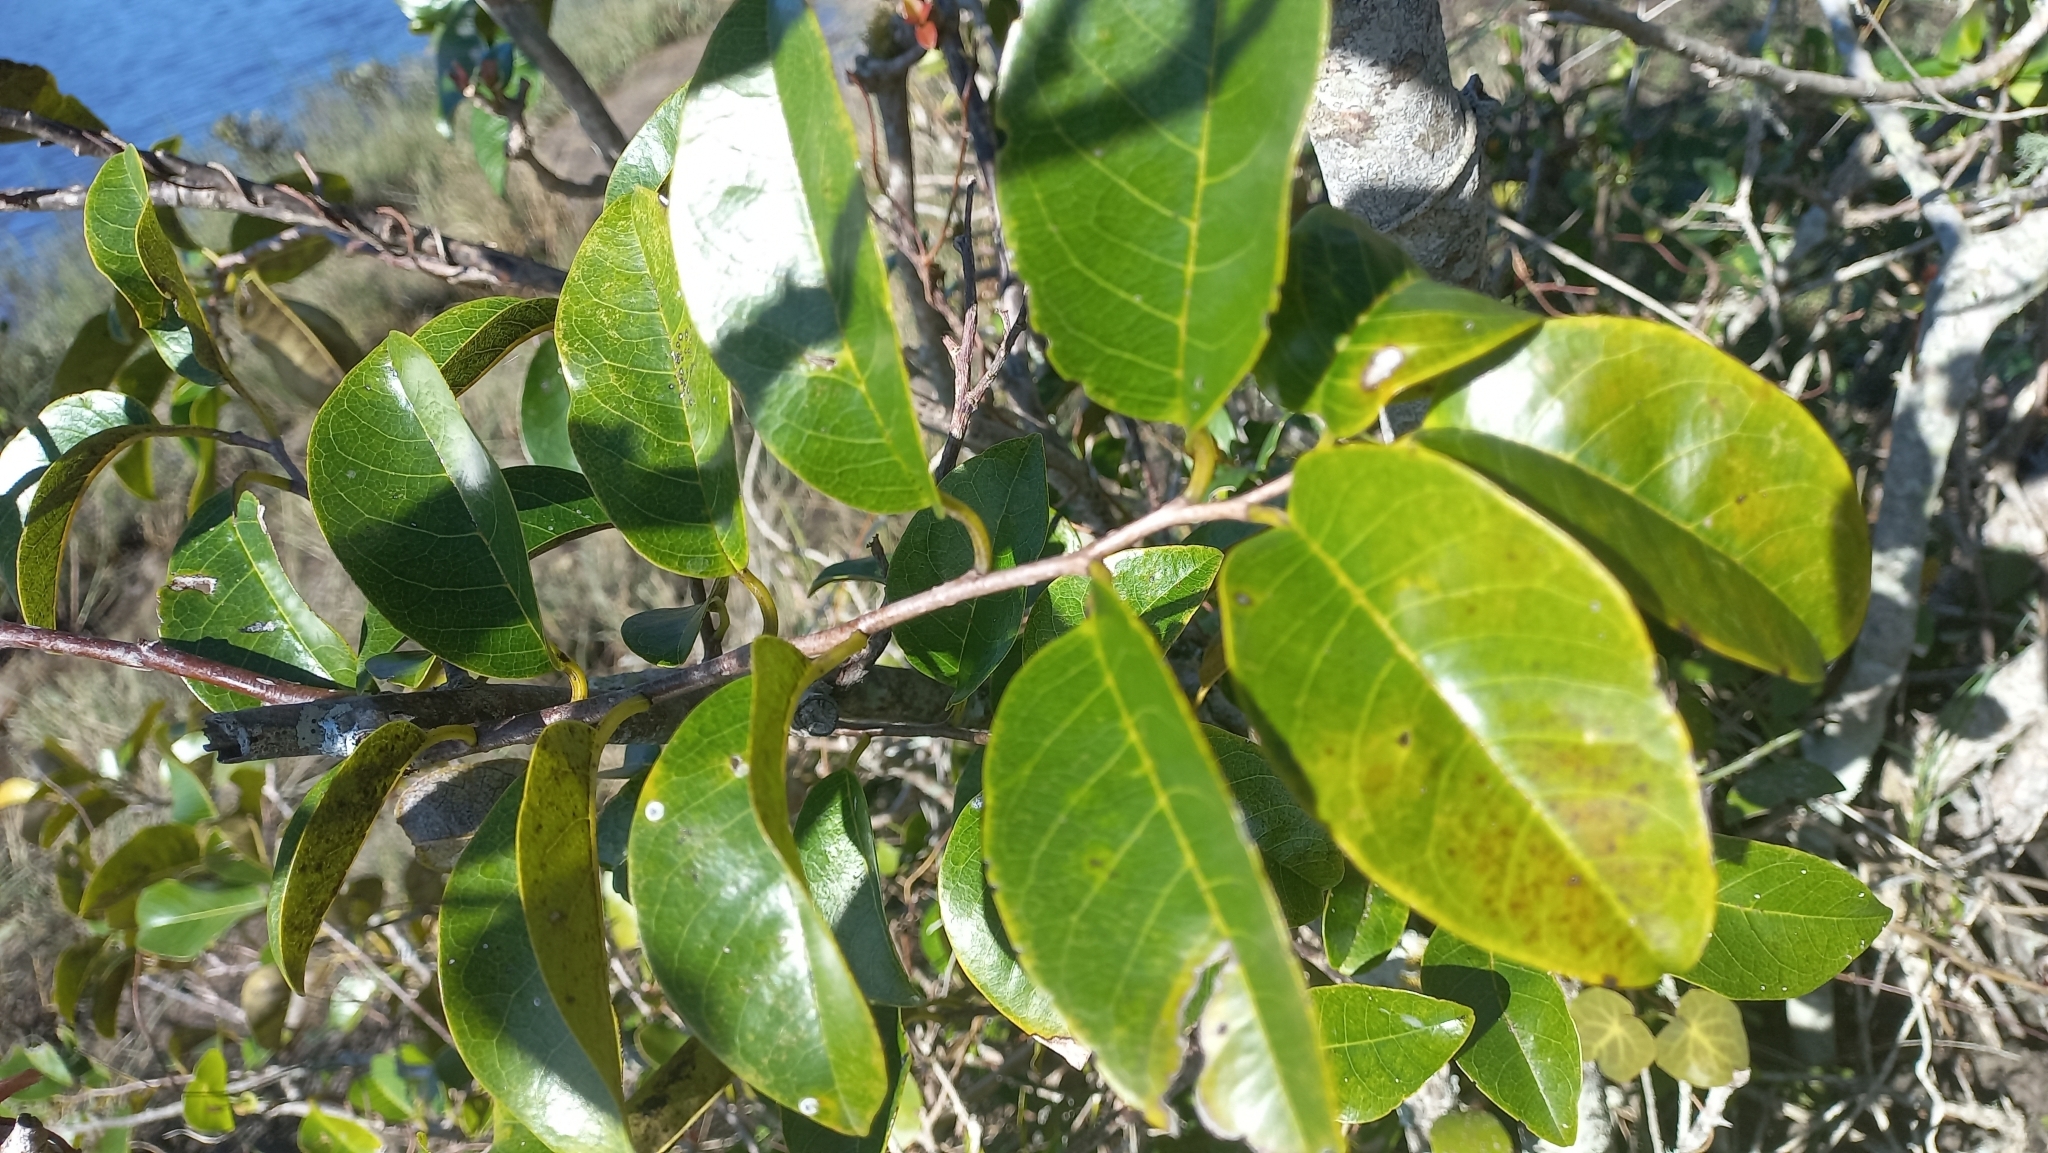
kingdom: Plantae
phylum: Tracheophyta
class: Magnoliopsida
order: Magnoliales
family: Annonaceae
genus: Annona
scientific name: Annona glabra
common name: Monkey apple
